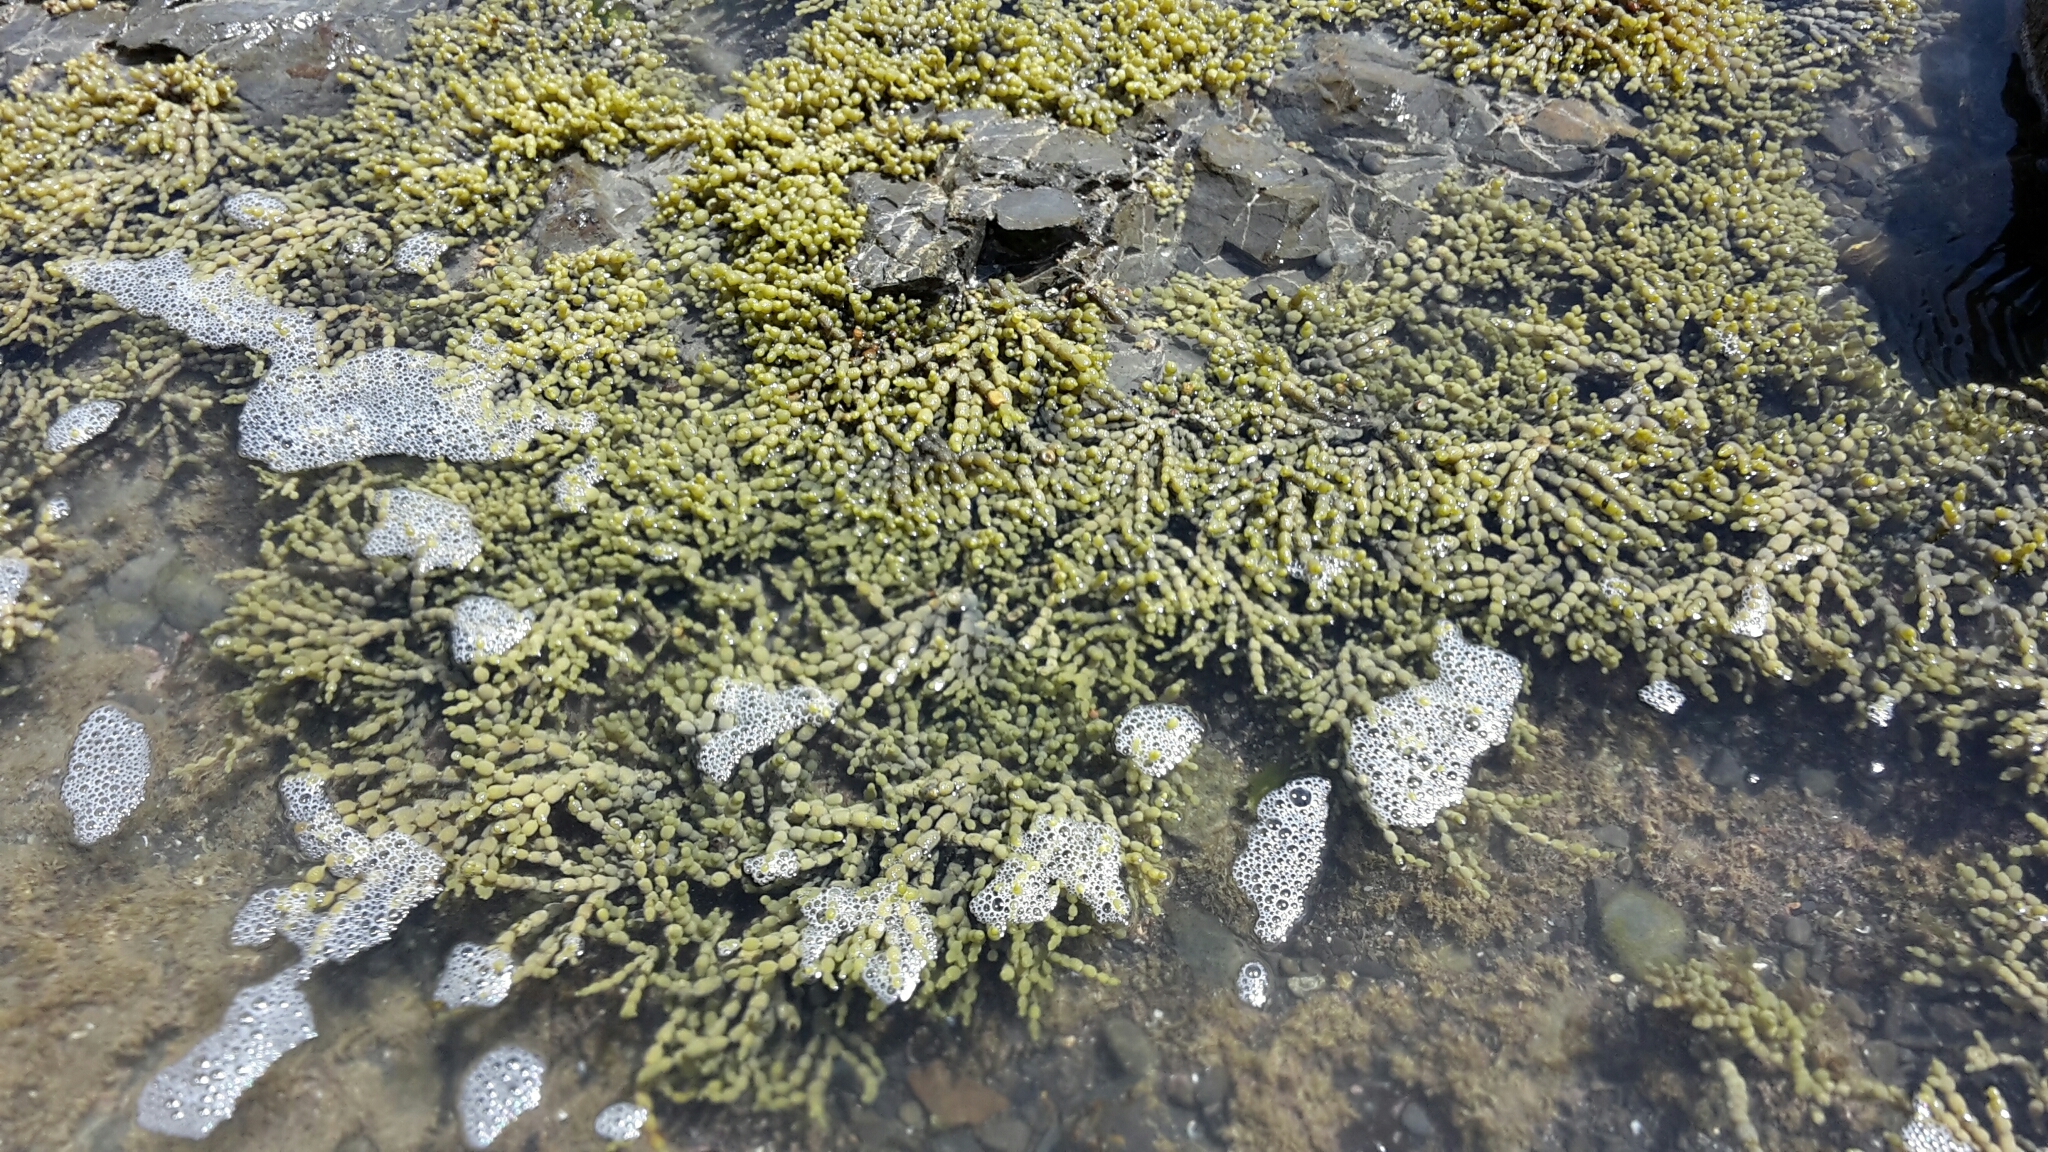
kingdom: Chromista
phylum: Ochrophyta
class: Phaeophyceae
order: Fucales
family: Hormosiraceae
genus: Hormosira
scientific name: Hormosira banksii
